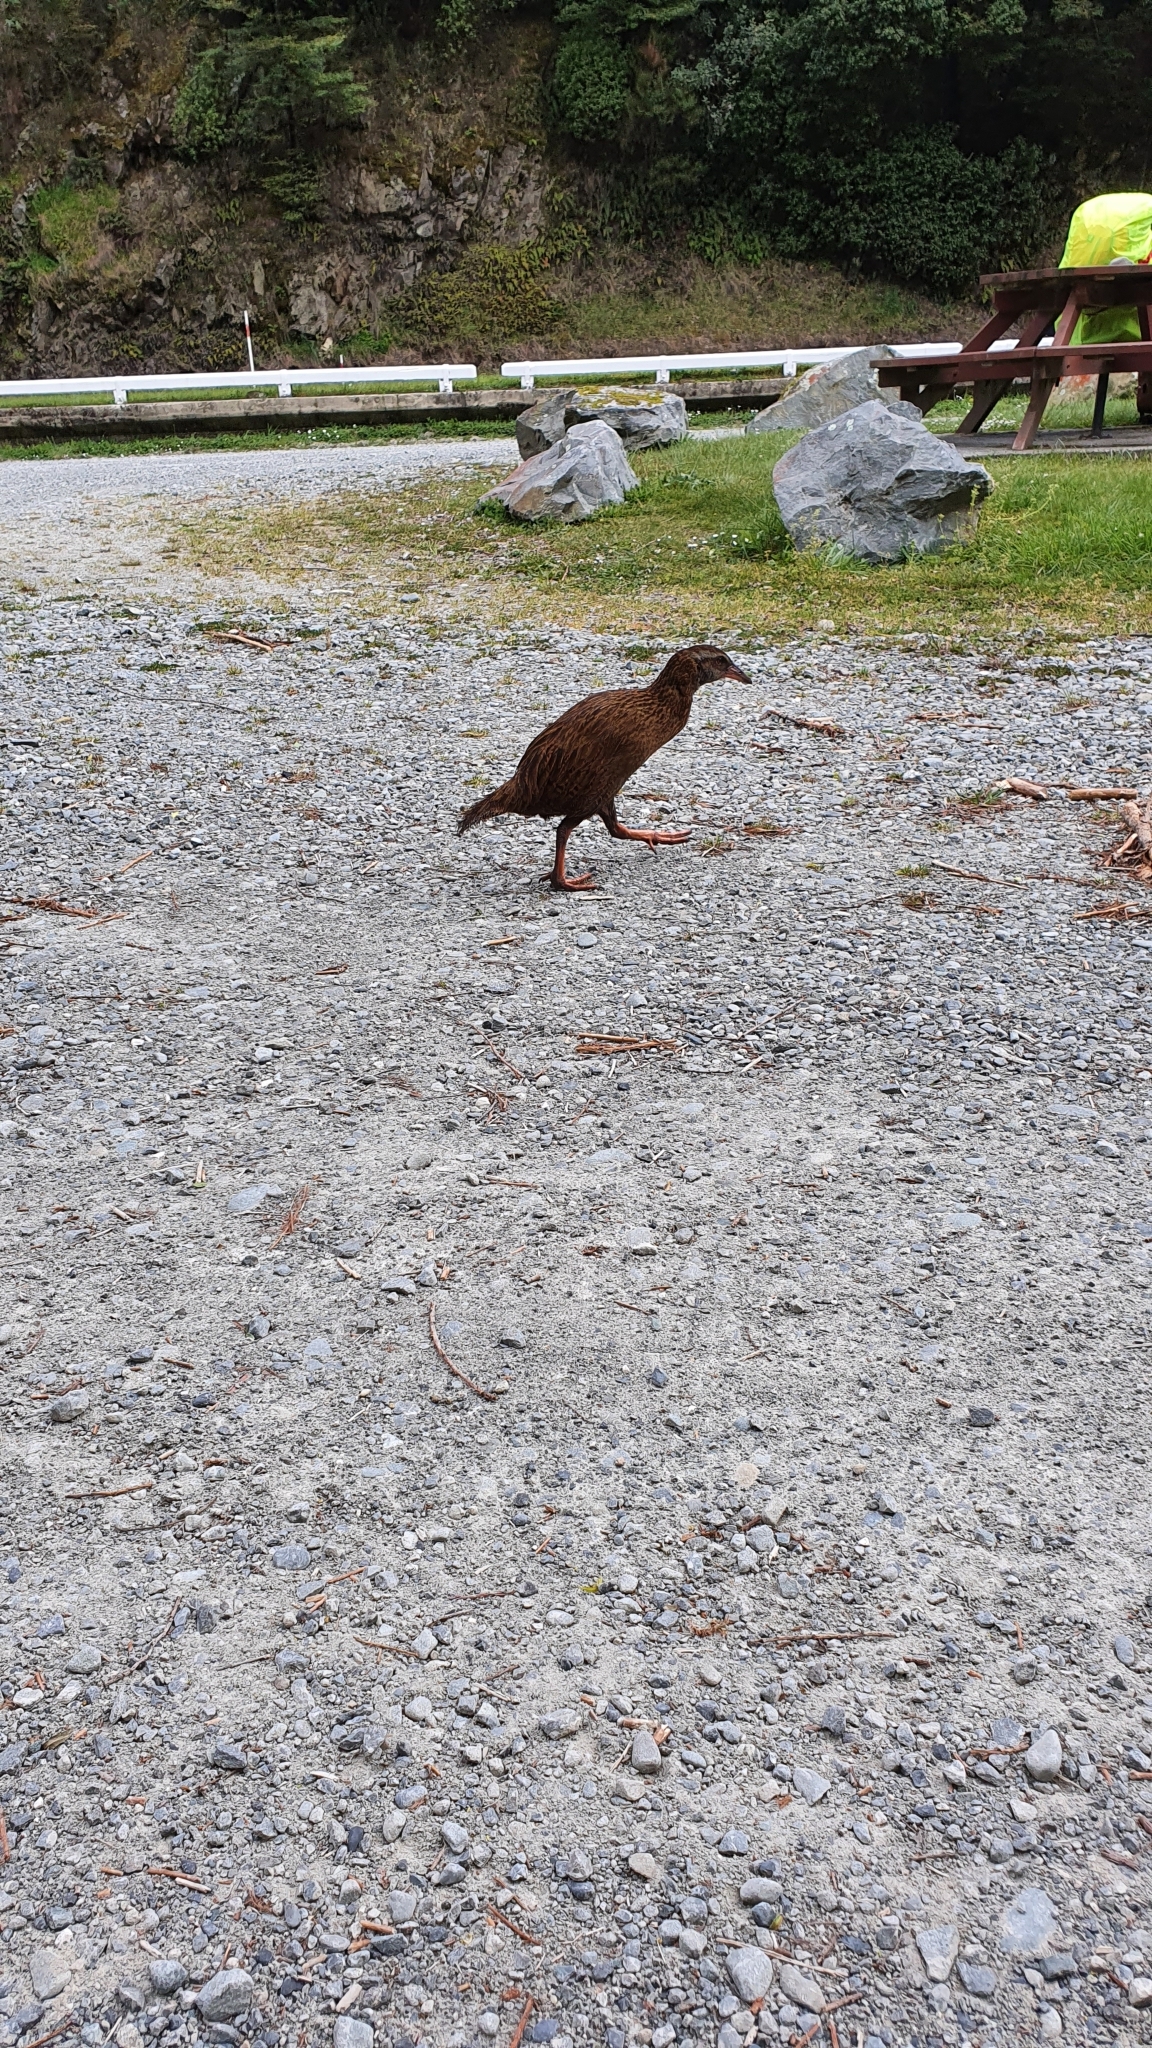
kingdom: Animalia
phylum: Chordata
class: Aves
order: Gruiformes
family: Rallidae
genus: Gallirallus
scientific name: Gallirallus australis
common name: Weka
